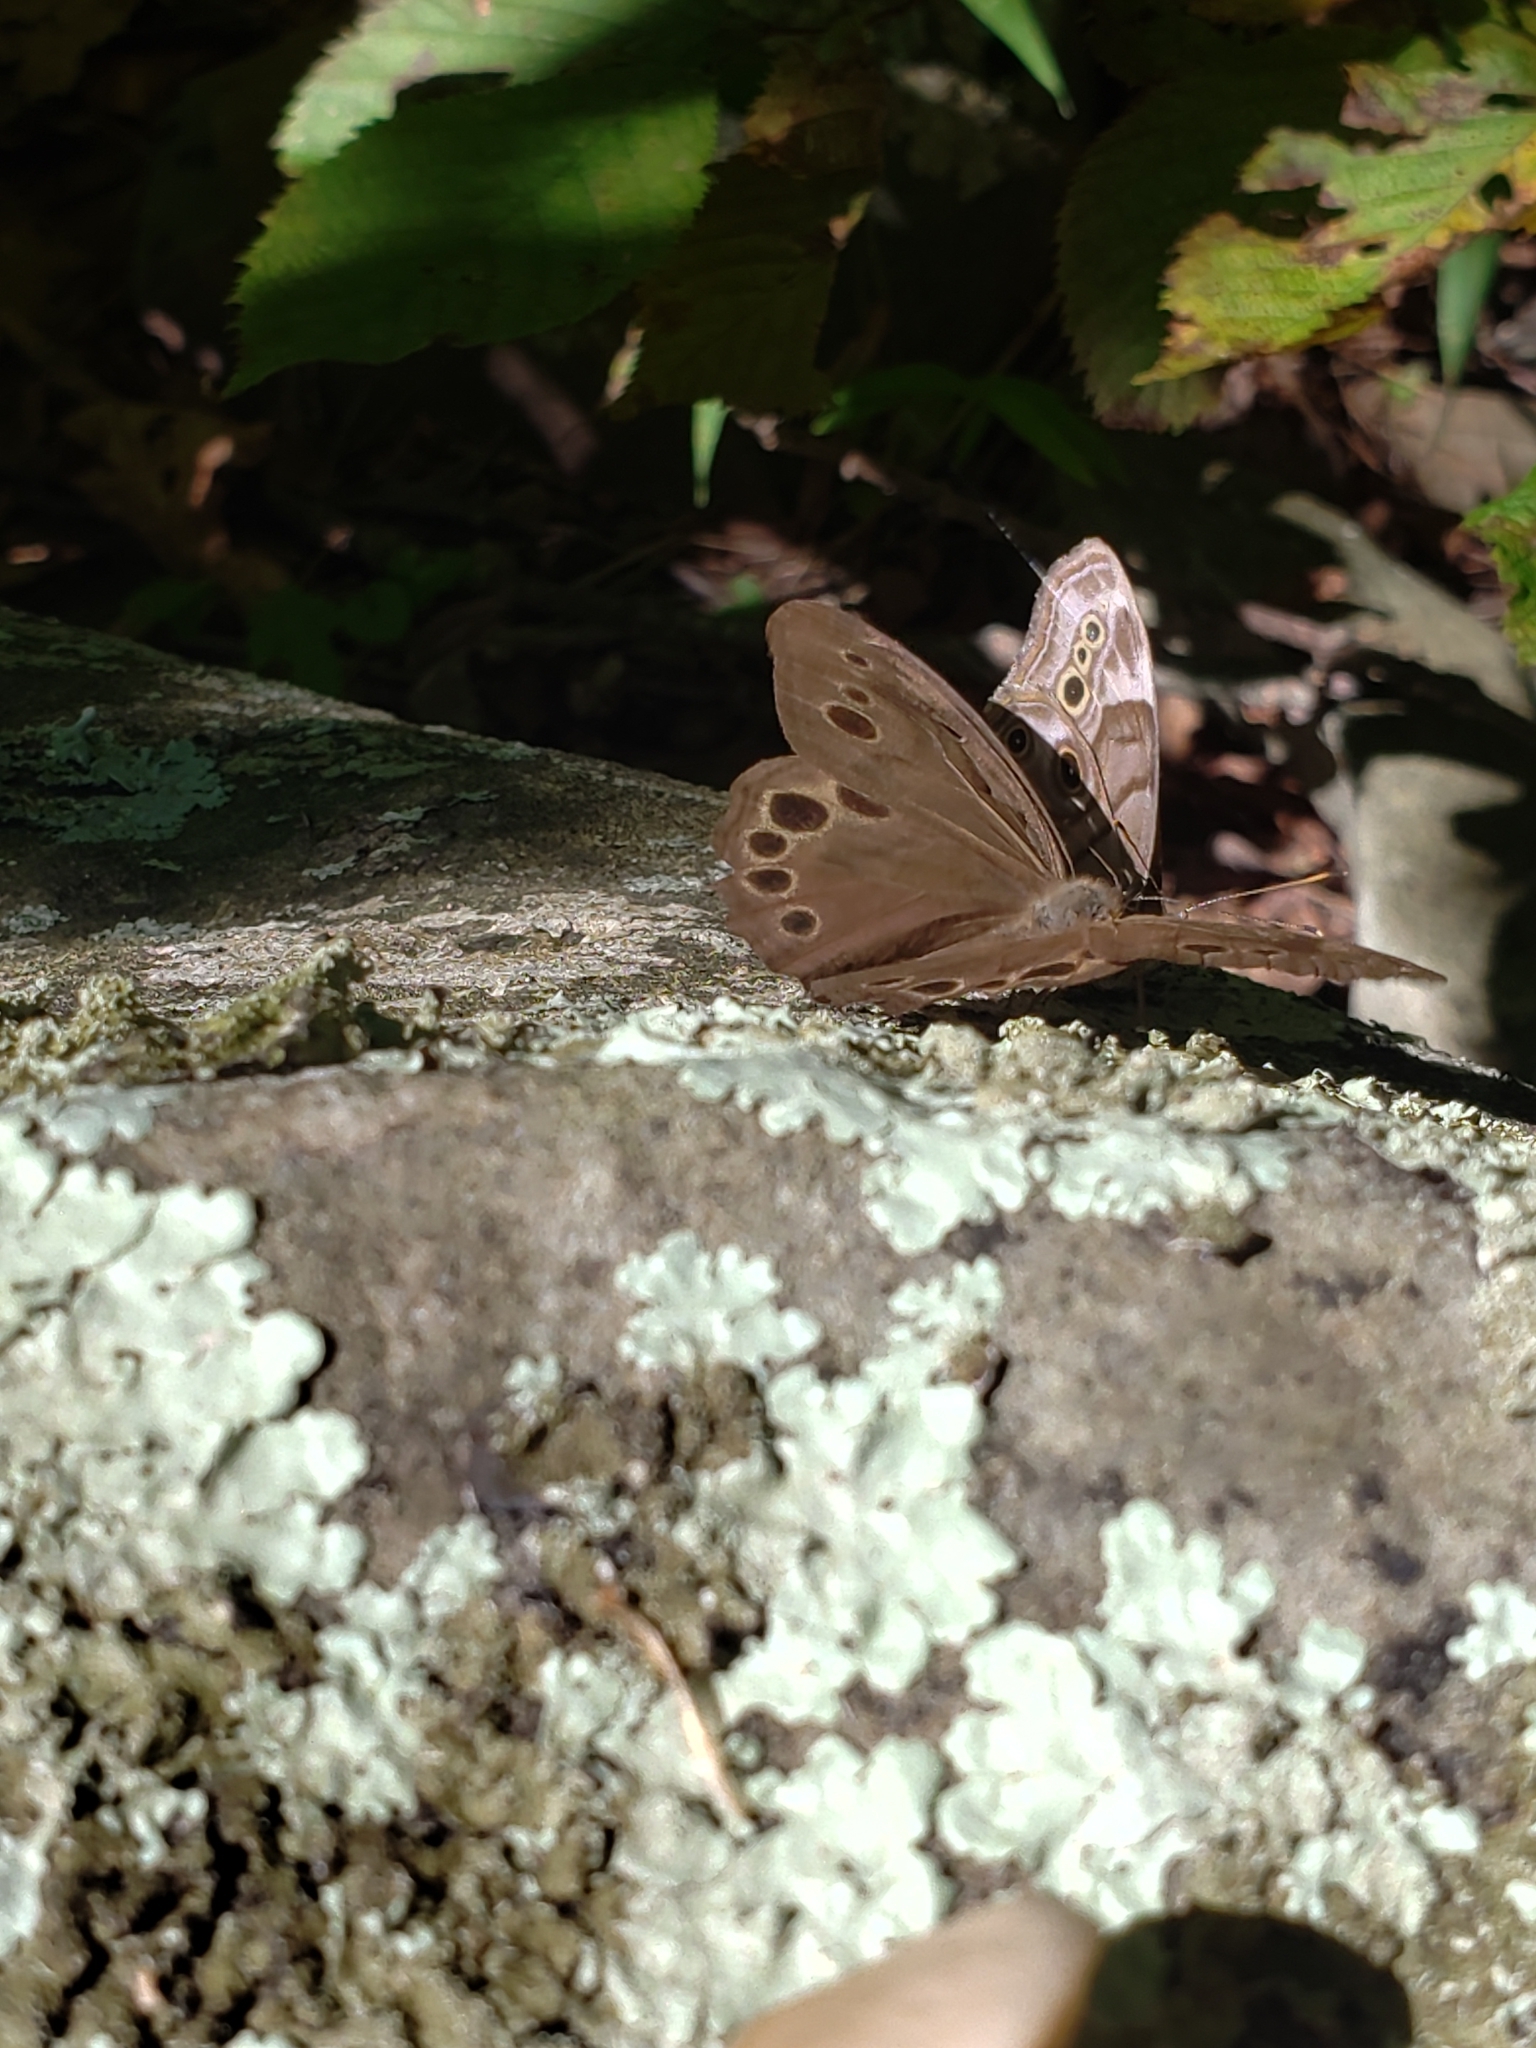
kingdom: Animalia
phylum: Arthropoda
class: Insecta
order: Lepidoptera
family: Nymphalidae
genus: Lethe
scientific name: Lethe anthedon
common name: Northern pearly-eye
